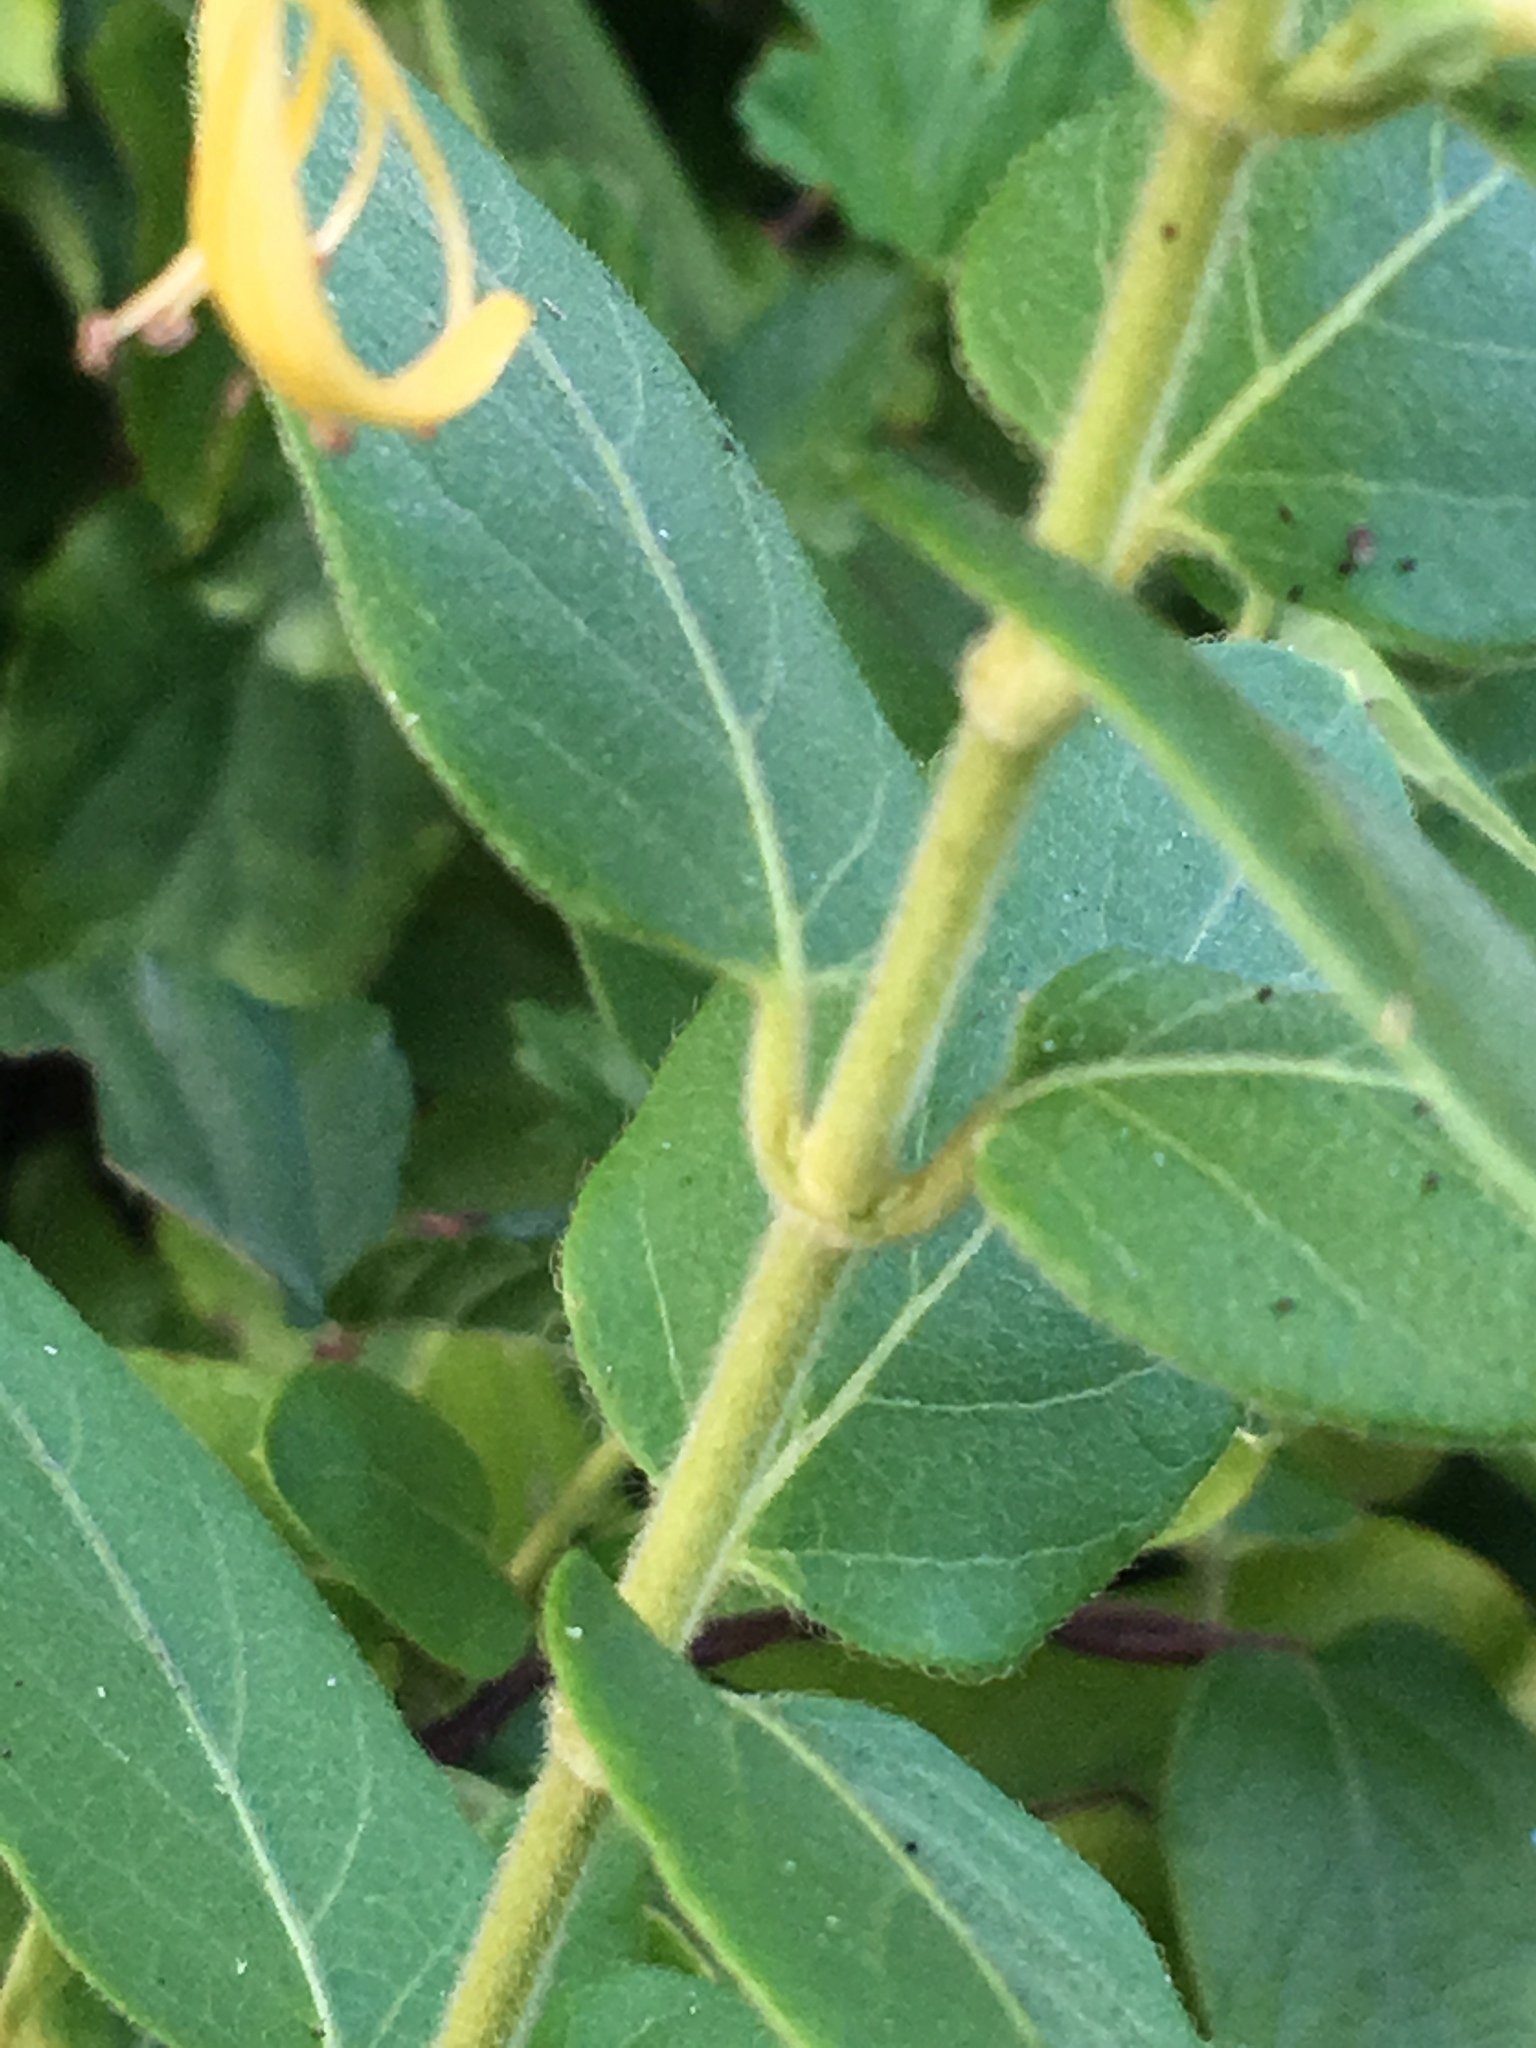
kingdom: Plantae
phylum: Tracheophyta
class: Magnoliopsida
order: Dipsacales
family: Caprifoliaceae
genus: Lonicera
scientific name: Lonicera japonica
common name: Japanese honeysuckle
